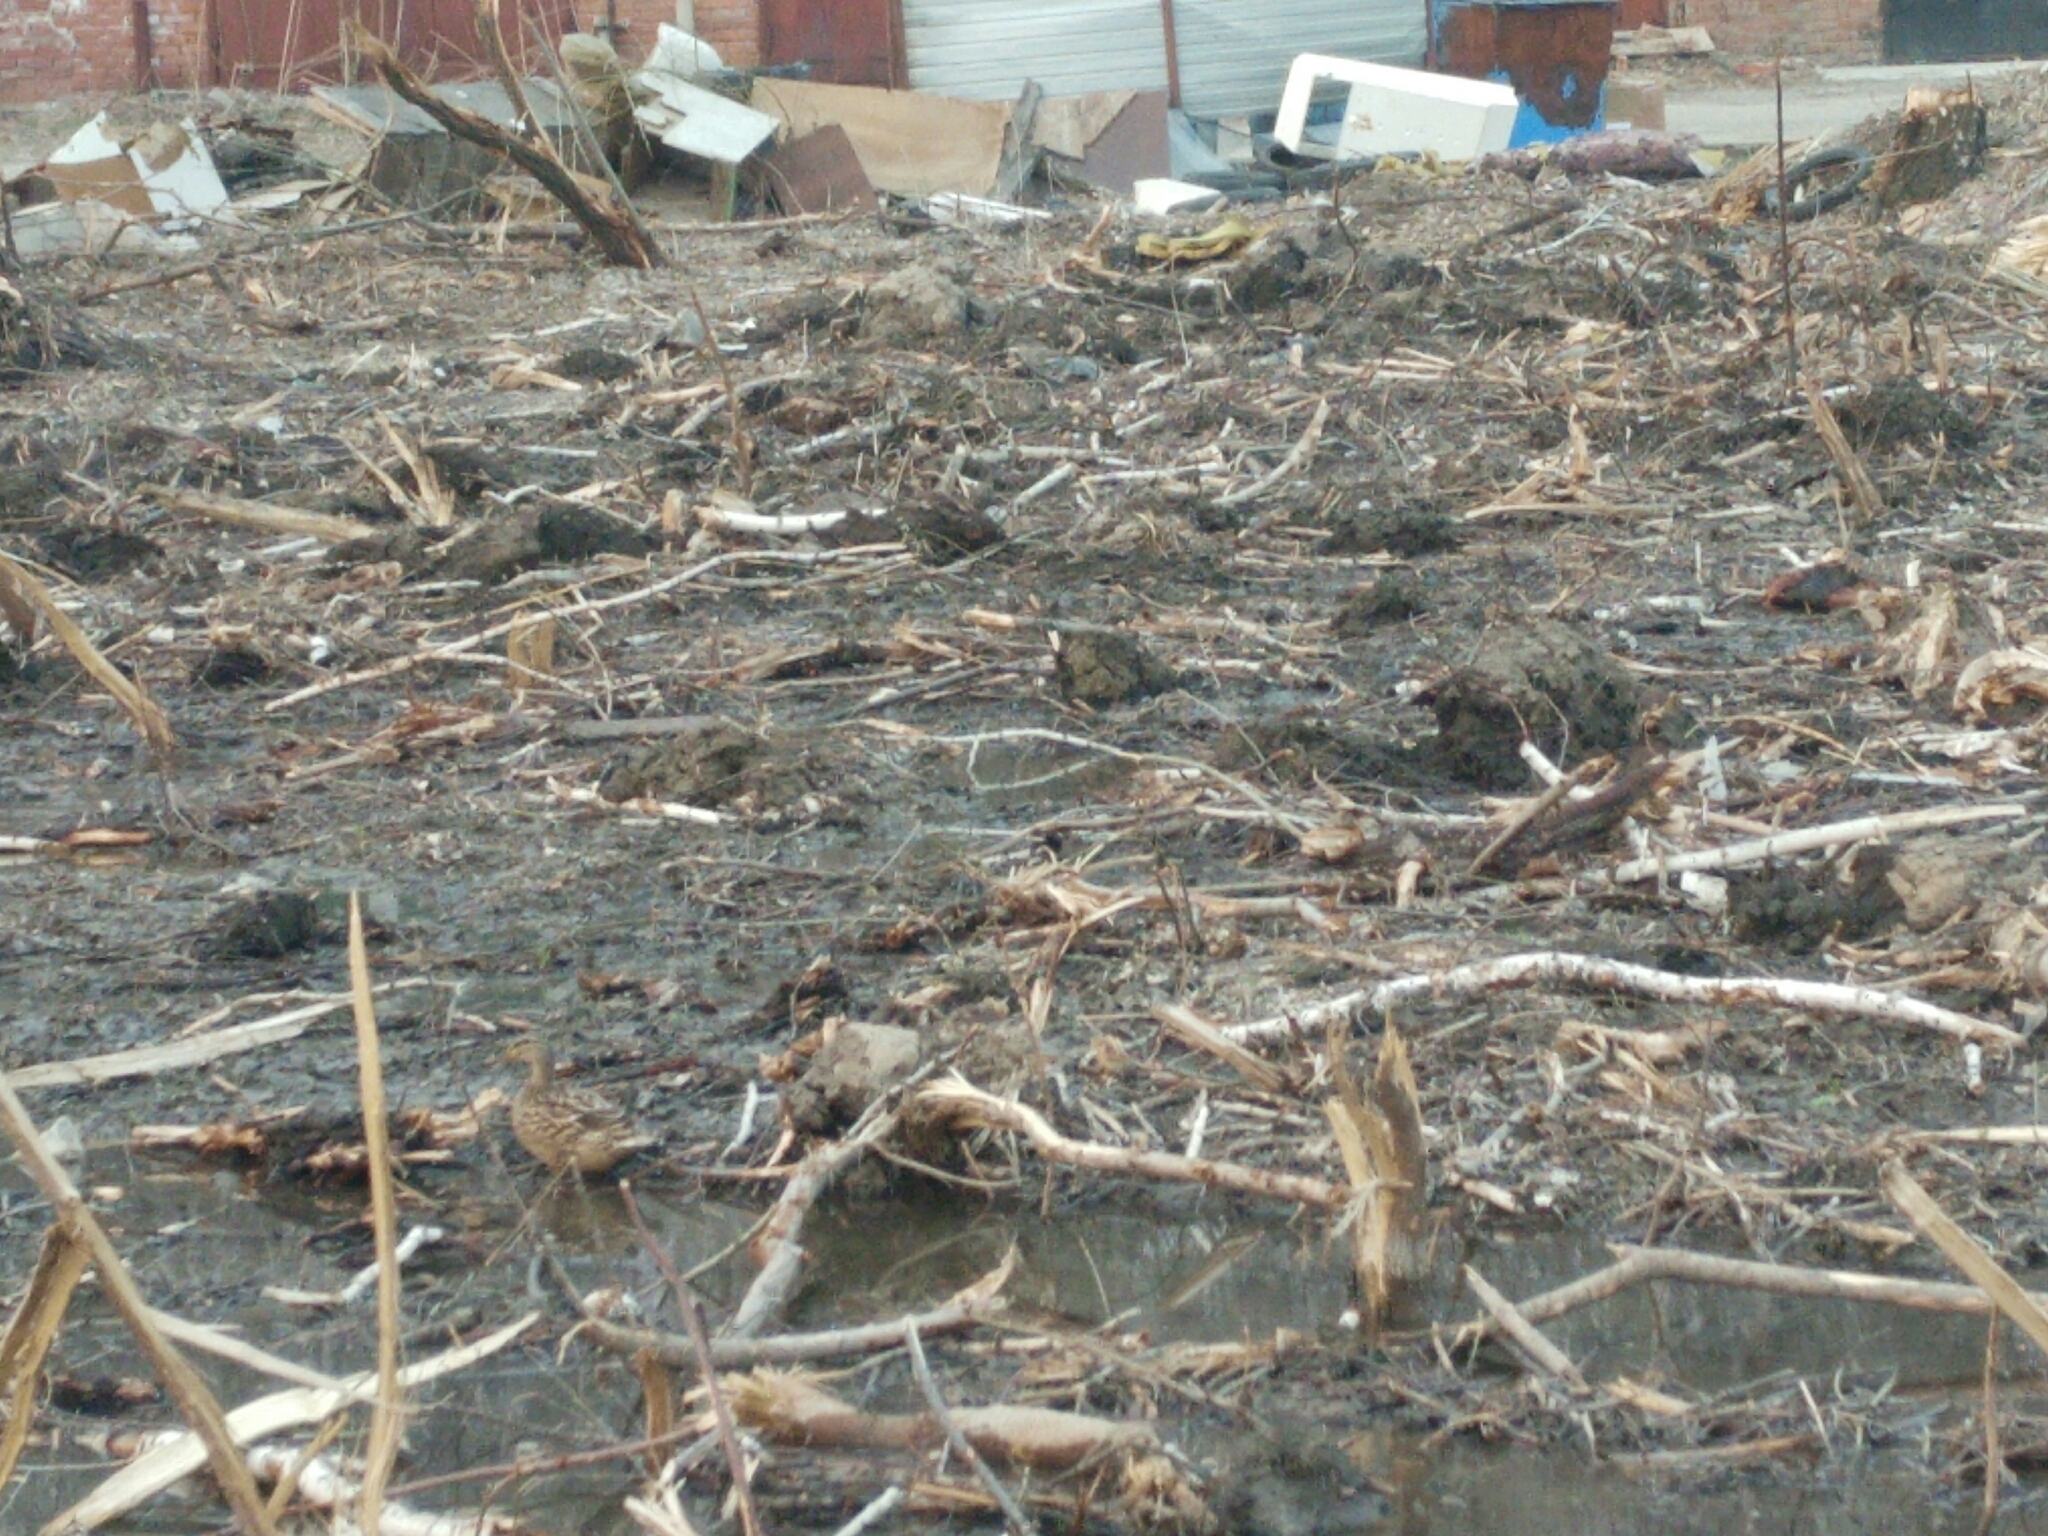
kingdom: Animalia
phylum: Chordata
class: Aves
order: Anseriformes
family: Anatidae
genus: Anas
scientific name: Anas platyrhynchos
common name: Mallard
